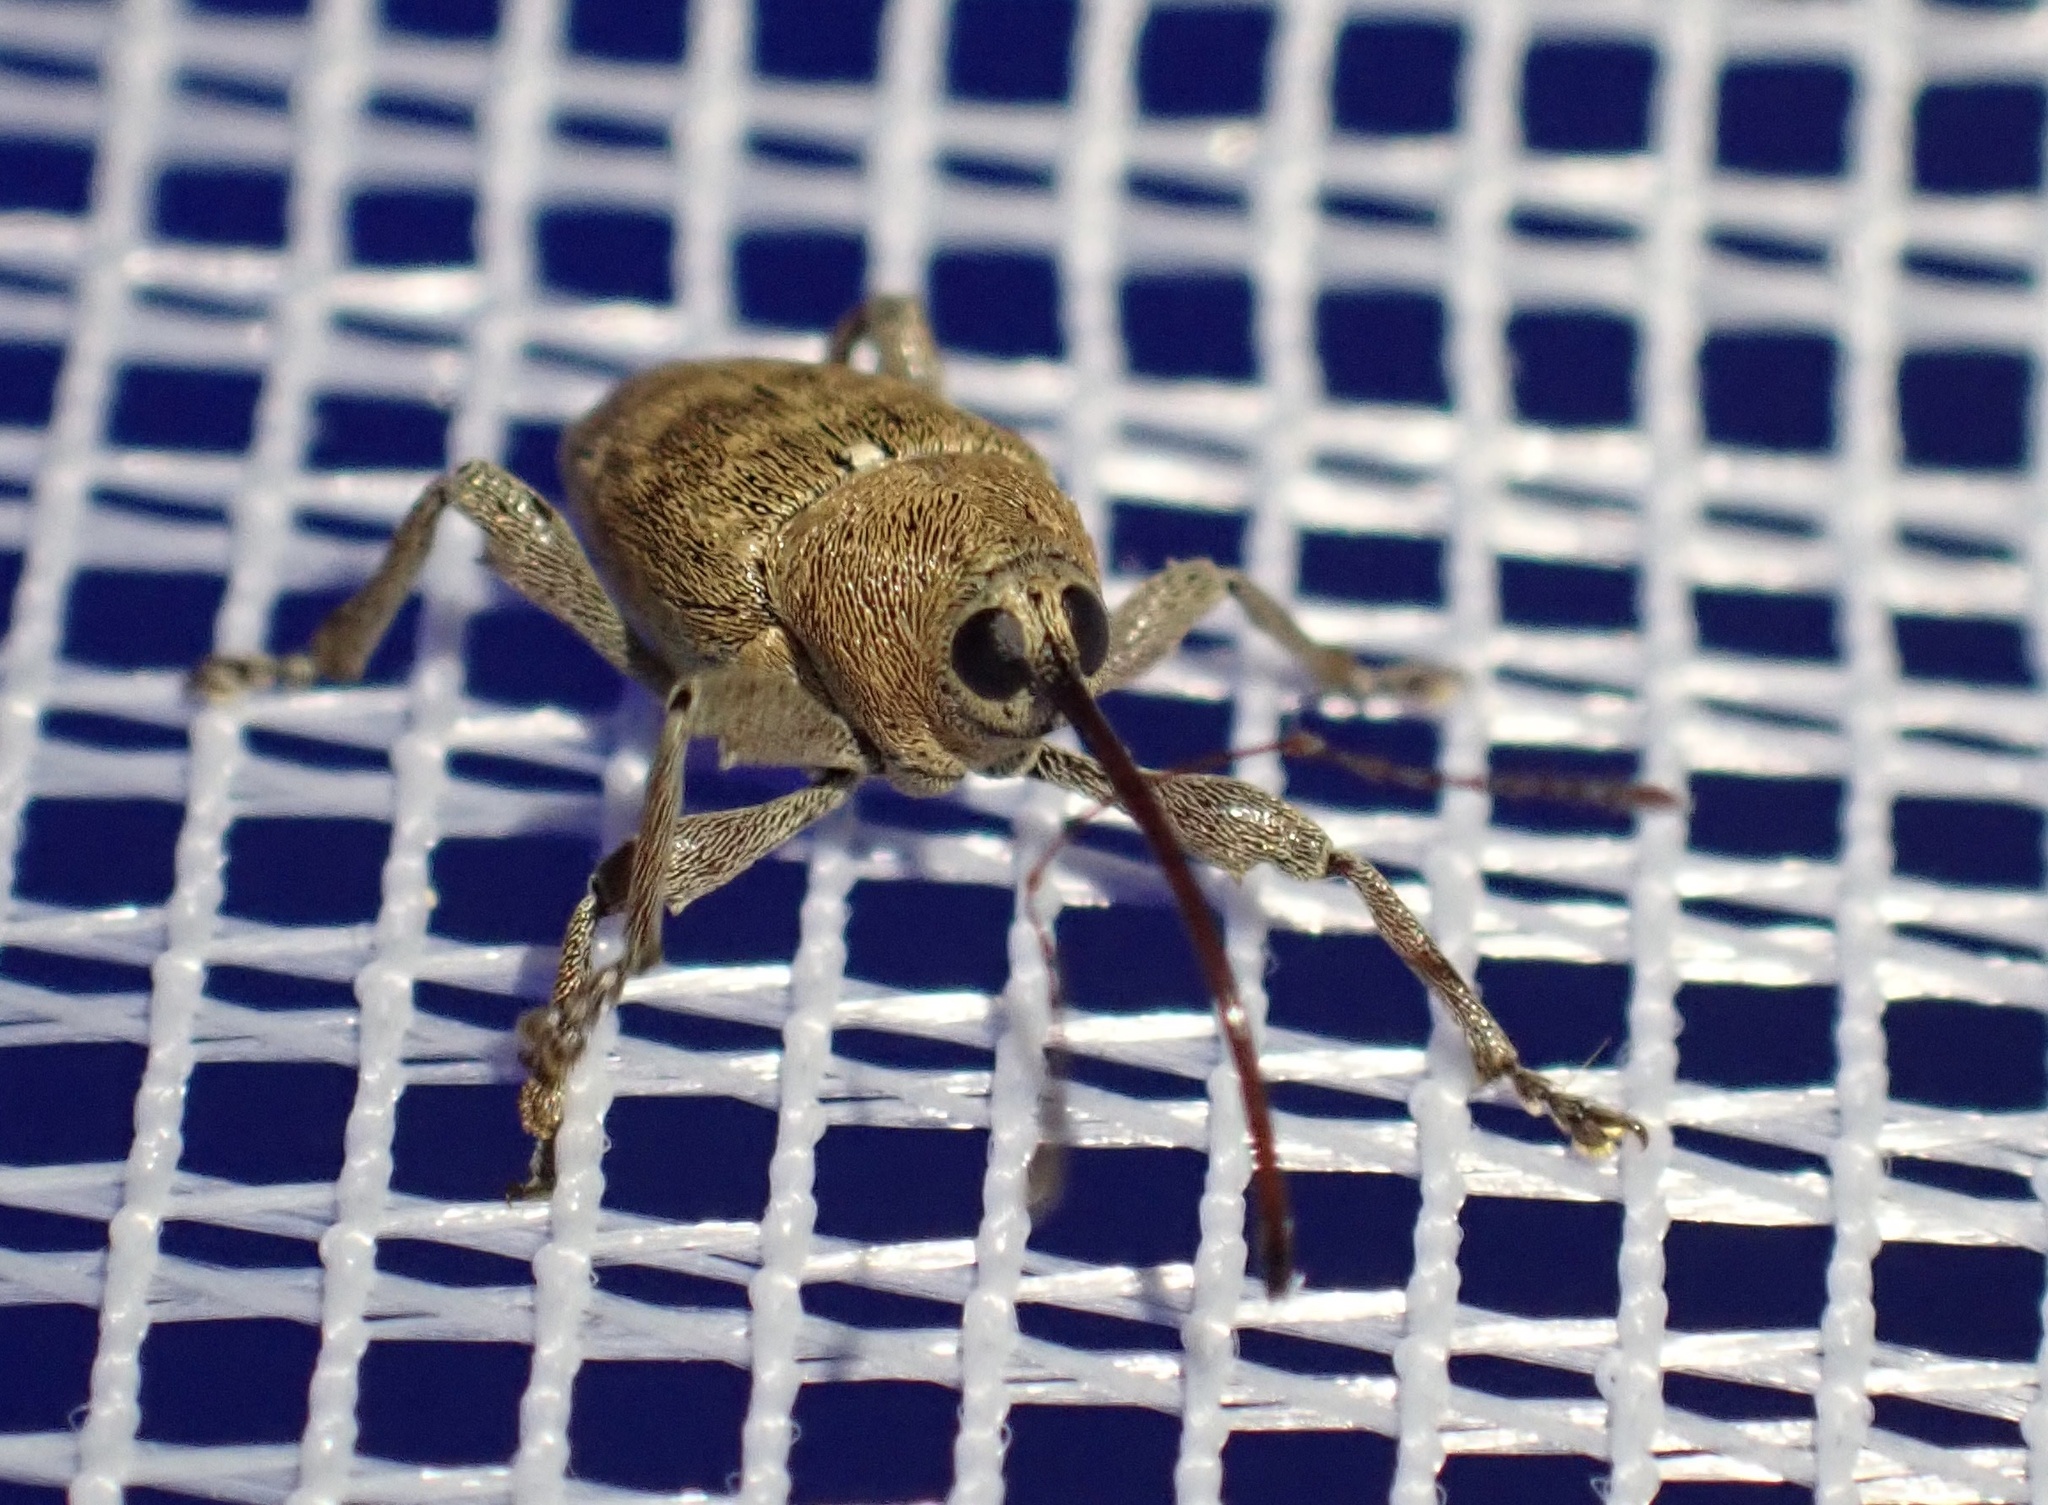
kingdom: Animalia
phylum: Arthropoda
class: Insecta
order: Coleoptera
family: Curculionidae
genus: Curculio
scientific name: Curculio glandium
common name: Acorn weevil
